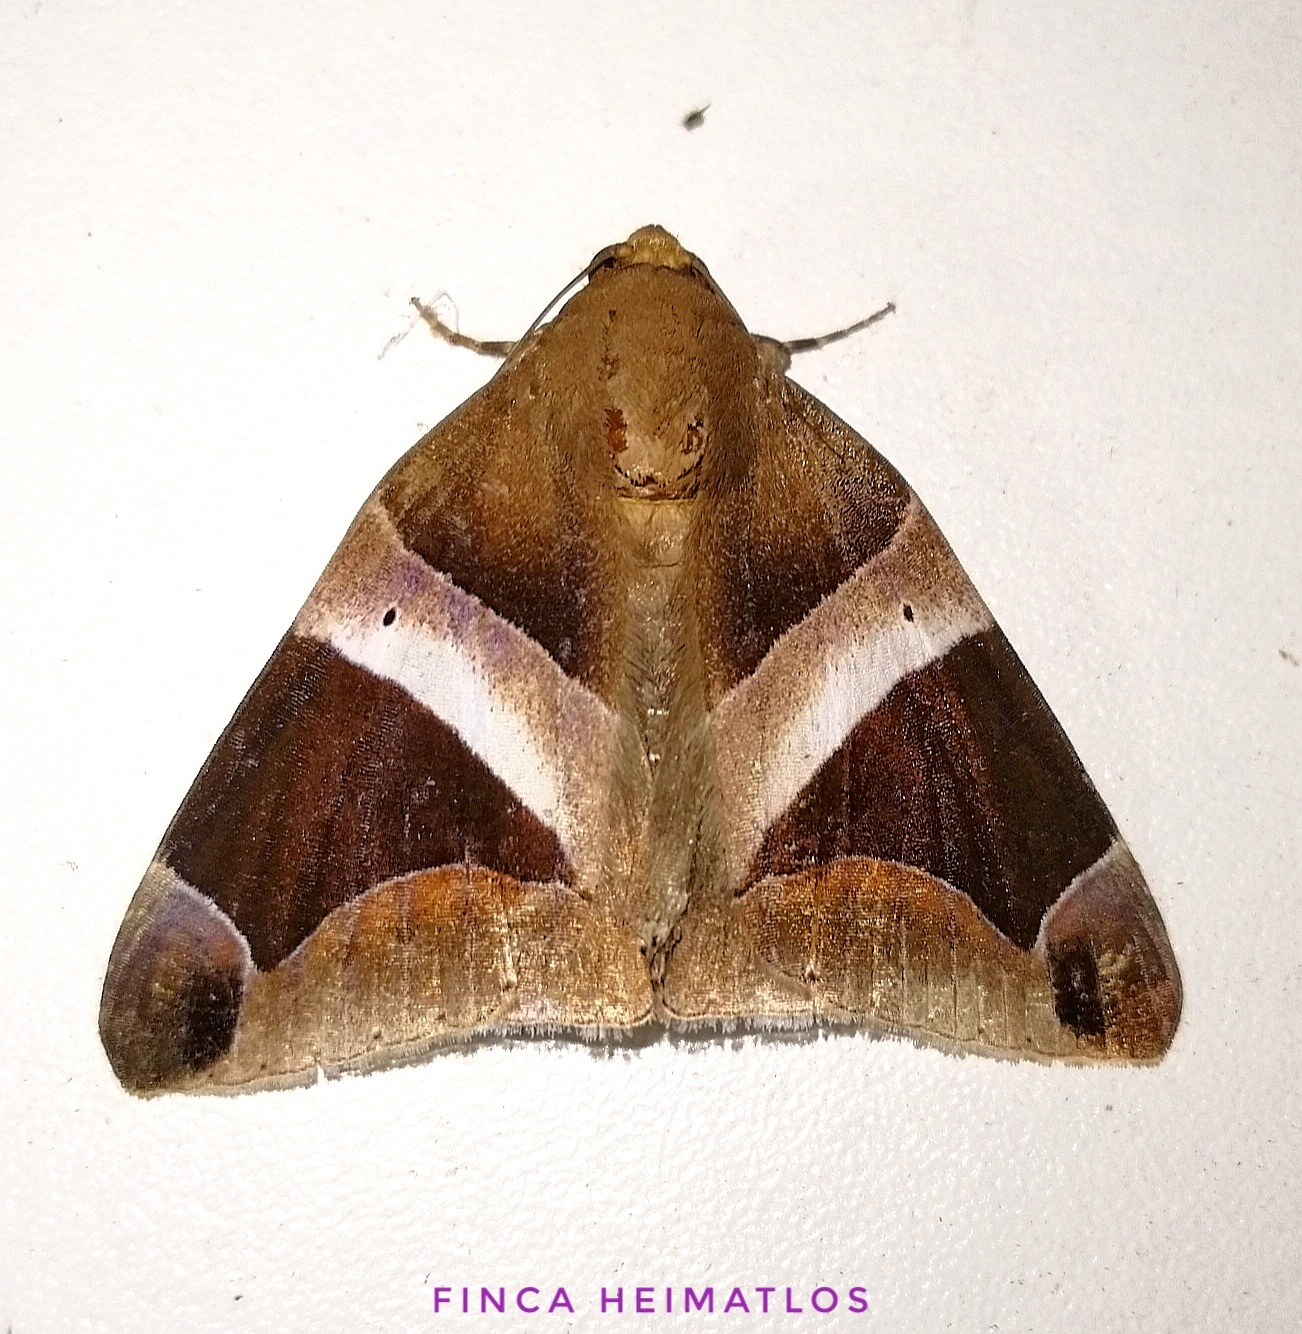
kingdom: Animalia
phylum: Arthropoda
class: Insecta
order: Lepidoptera
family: Erebidae
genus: Parallelia
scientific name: Parallelia expediens
